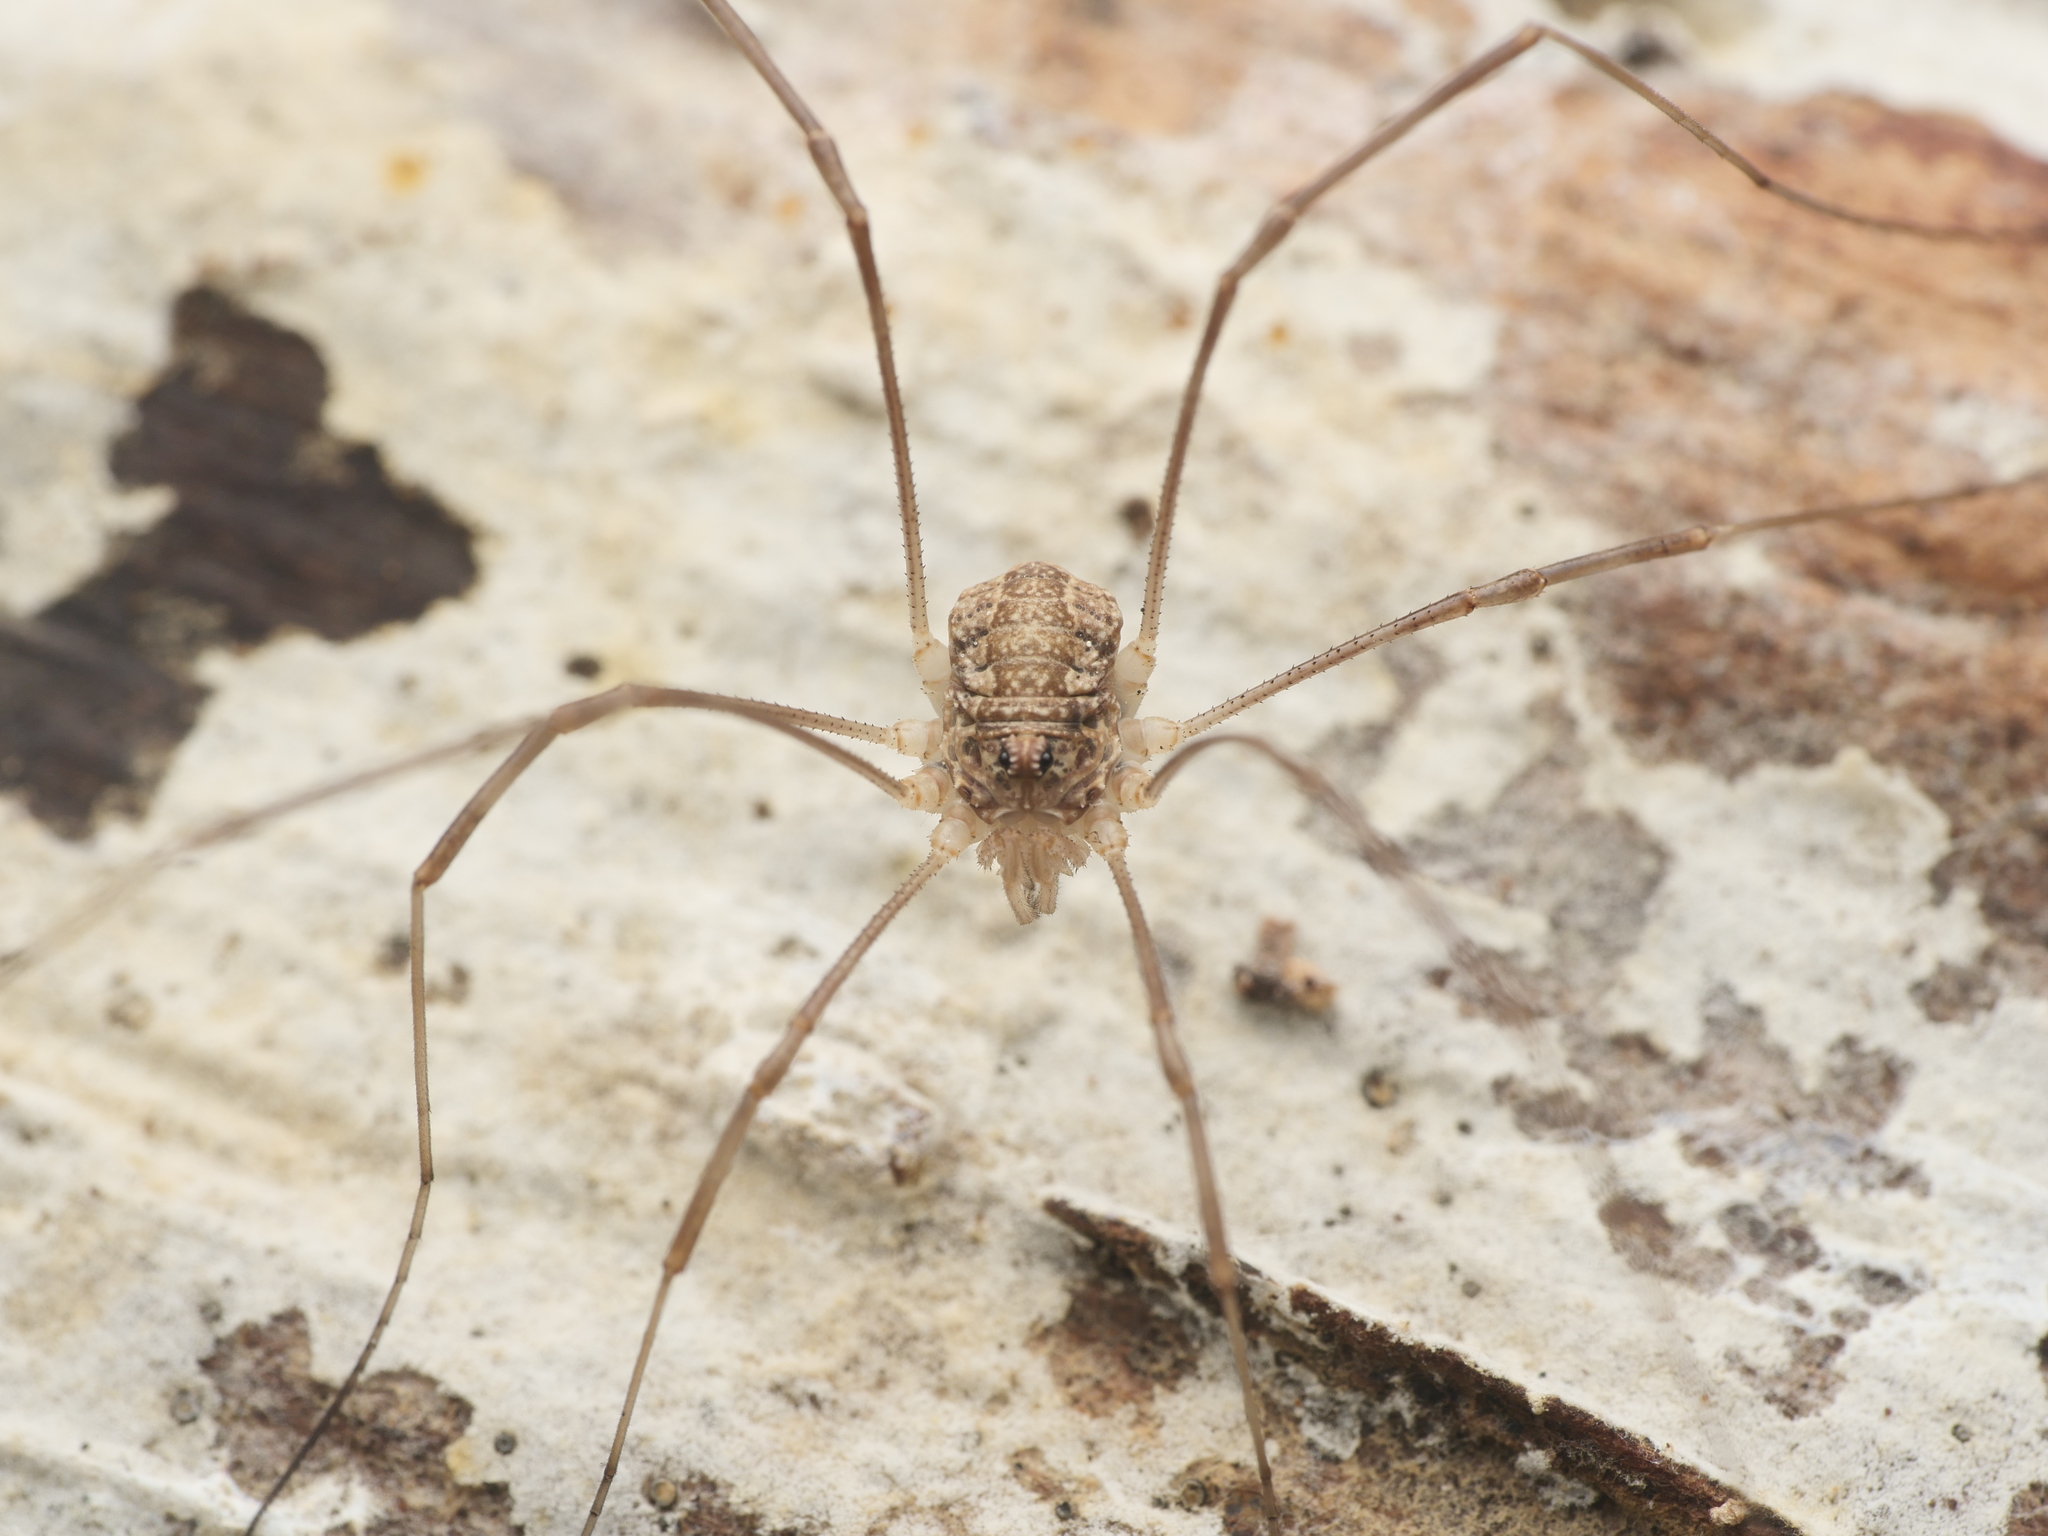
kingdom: Animalia
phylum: Arthropoda
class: Arachnida
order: Opiliones
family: Phalangiidae
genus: Rilaena
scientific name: Rilaena triangularis
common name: Spring harvestman
